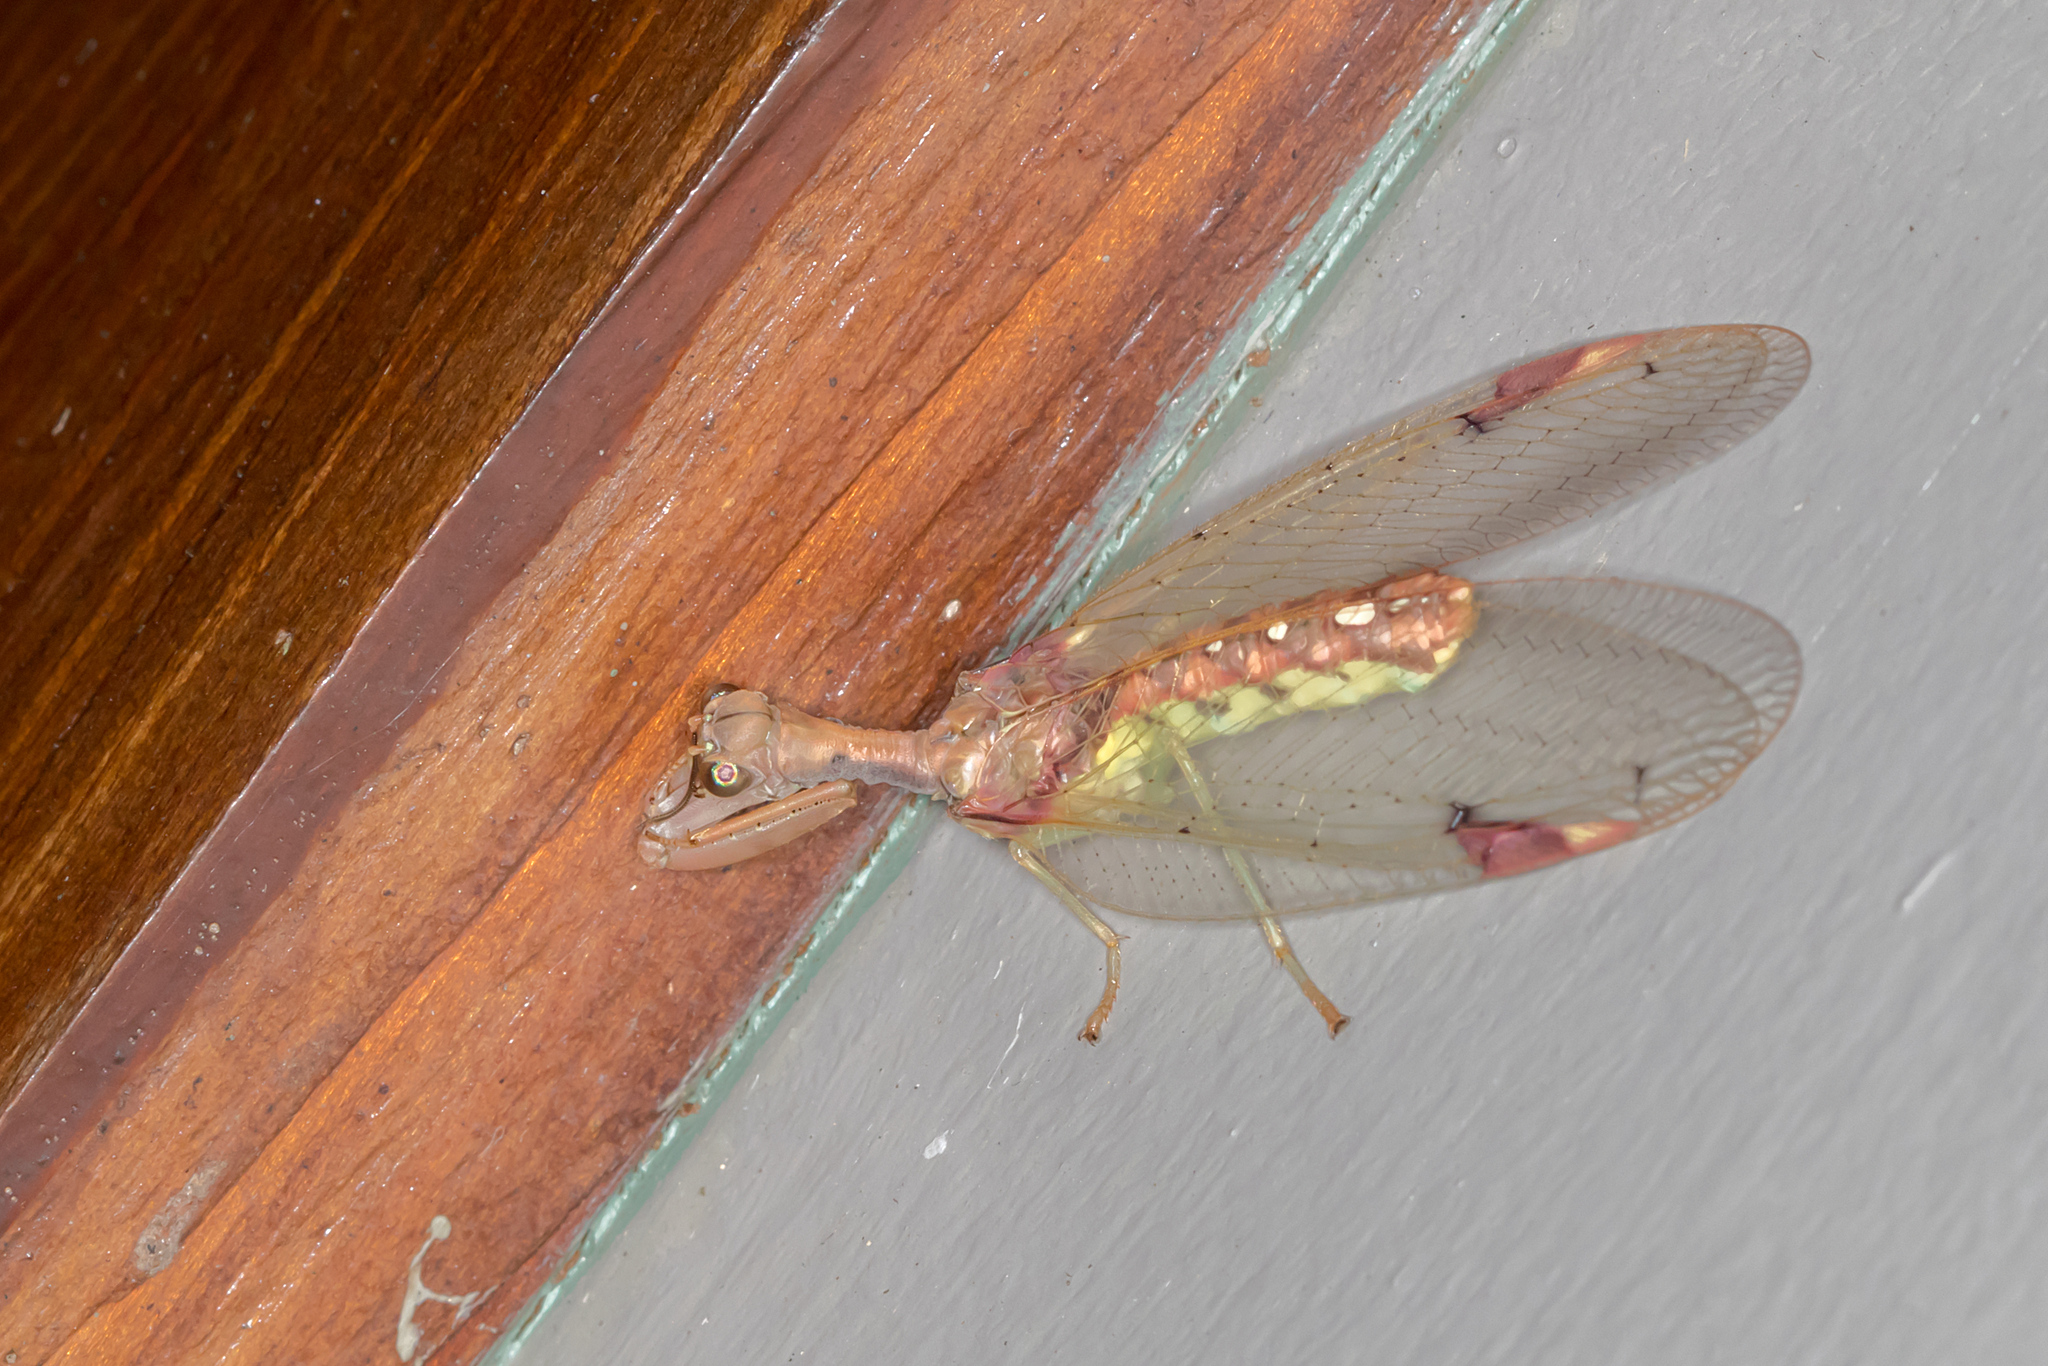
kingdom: Animalia
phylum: Arthropoda
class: Insecta
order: Neuroptera
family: Mantispidae
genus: Ditaxis
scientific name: Ditaxis biseriata
